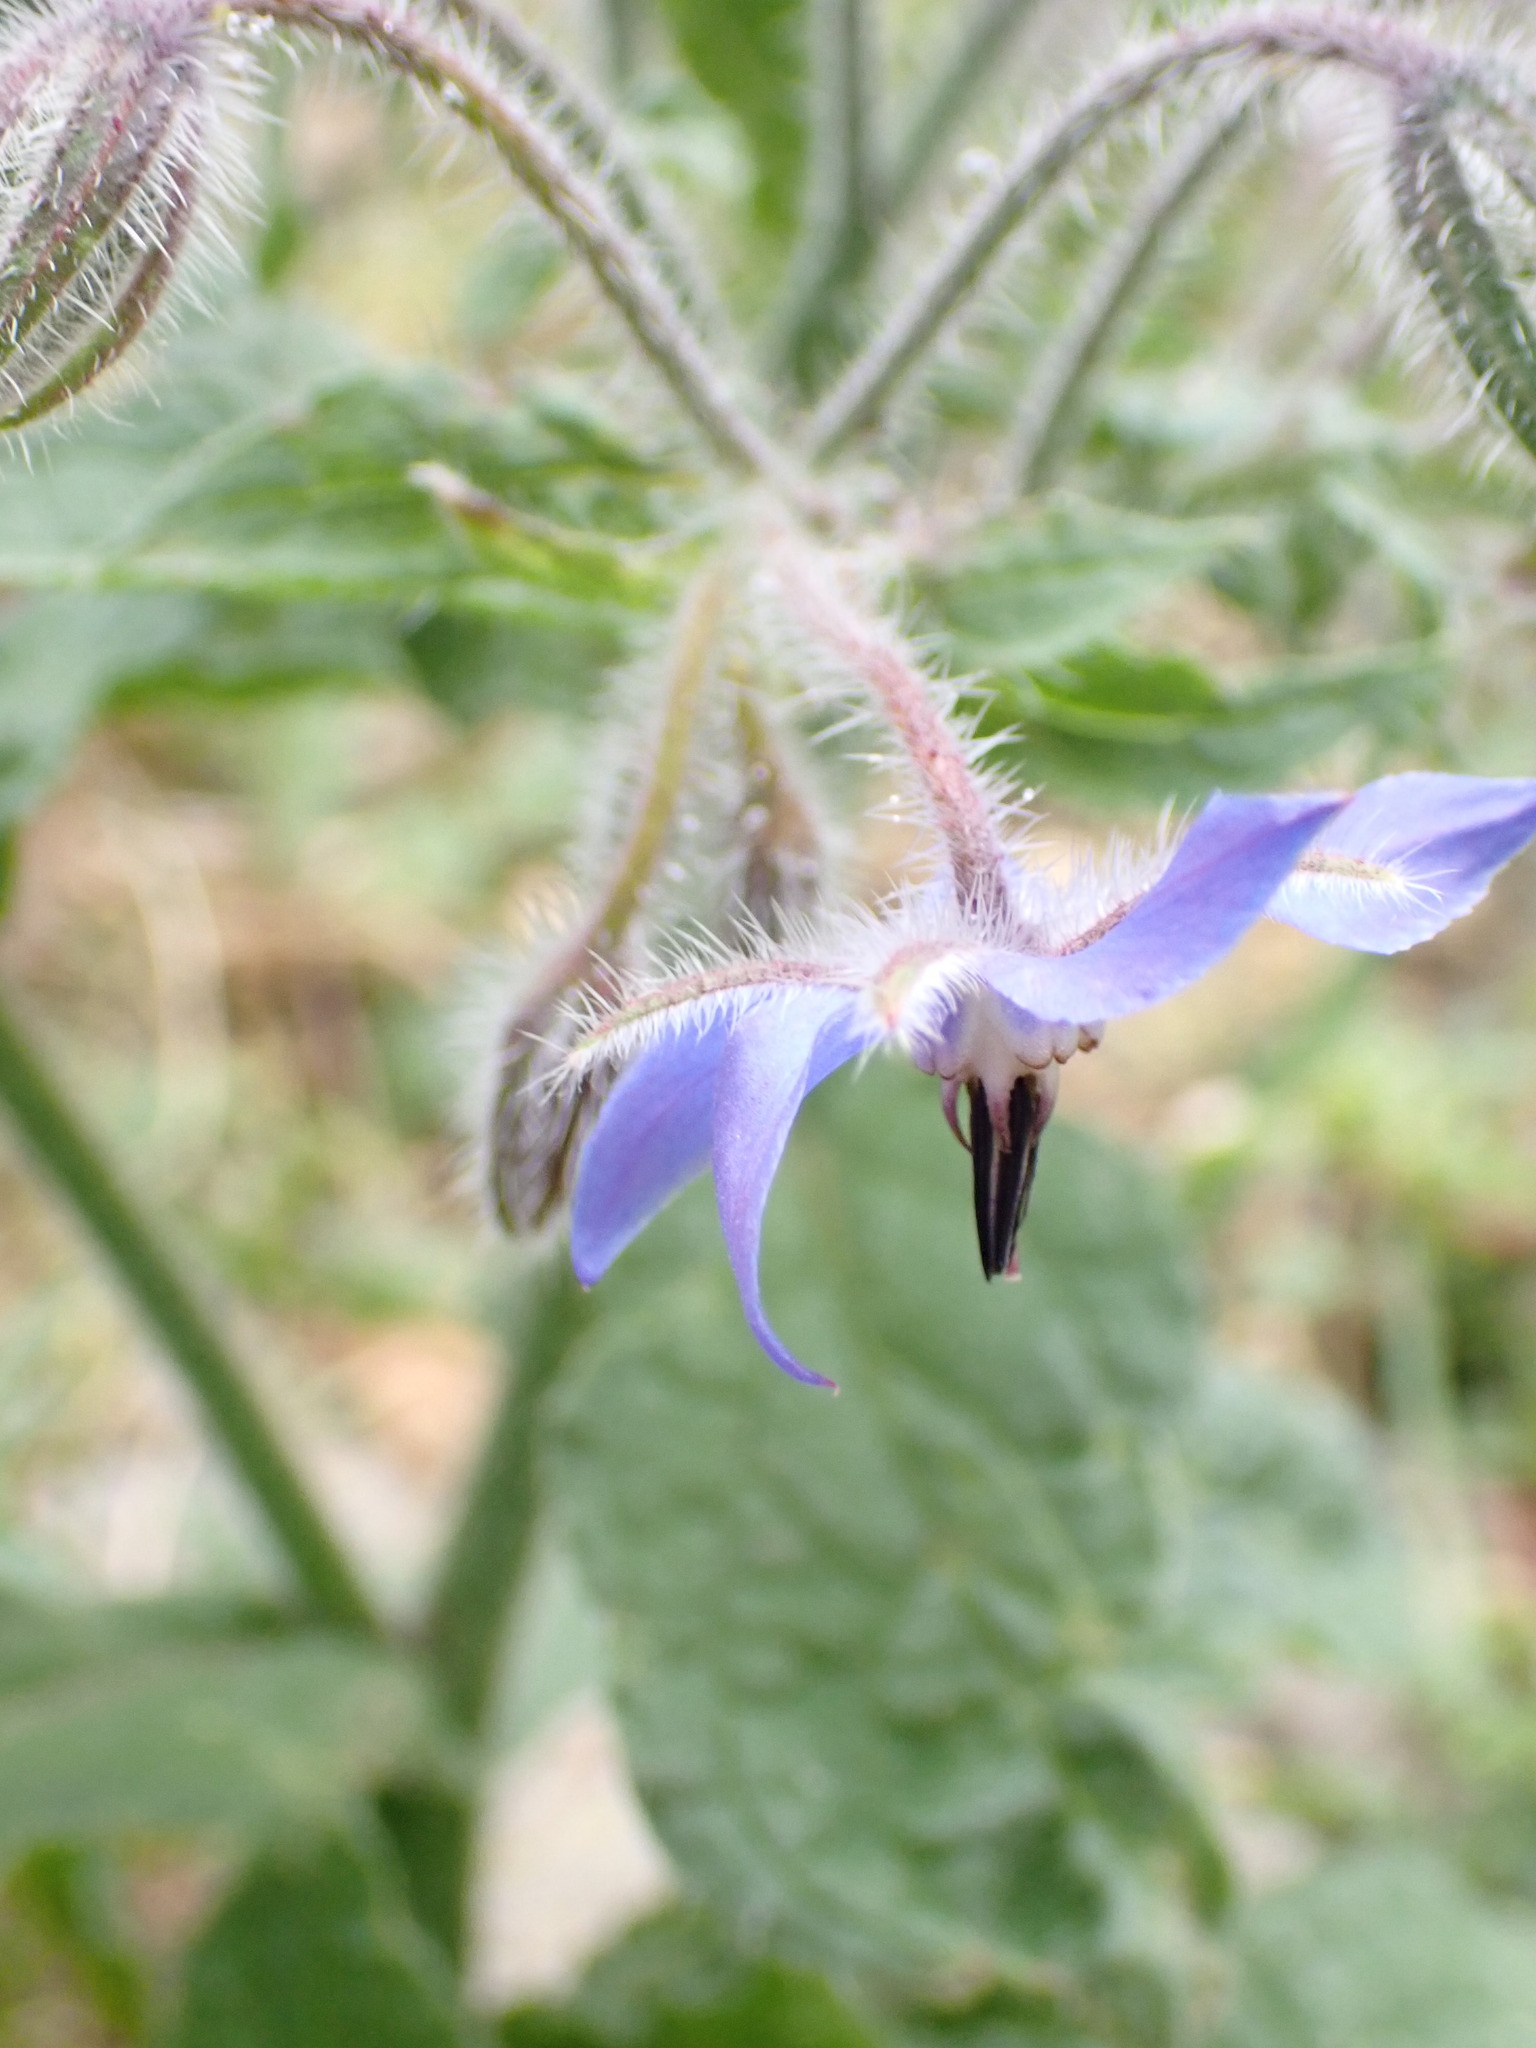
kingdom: Plantae
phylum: Tracheophyta
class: Magnoliopsida
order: Boraginales
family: Boraginaceae
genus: Borago
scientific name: Borago officinalis
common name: Borage
